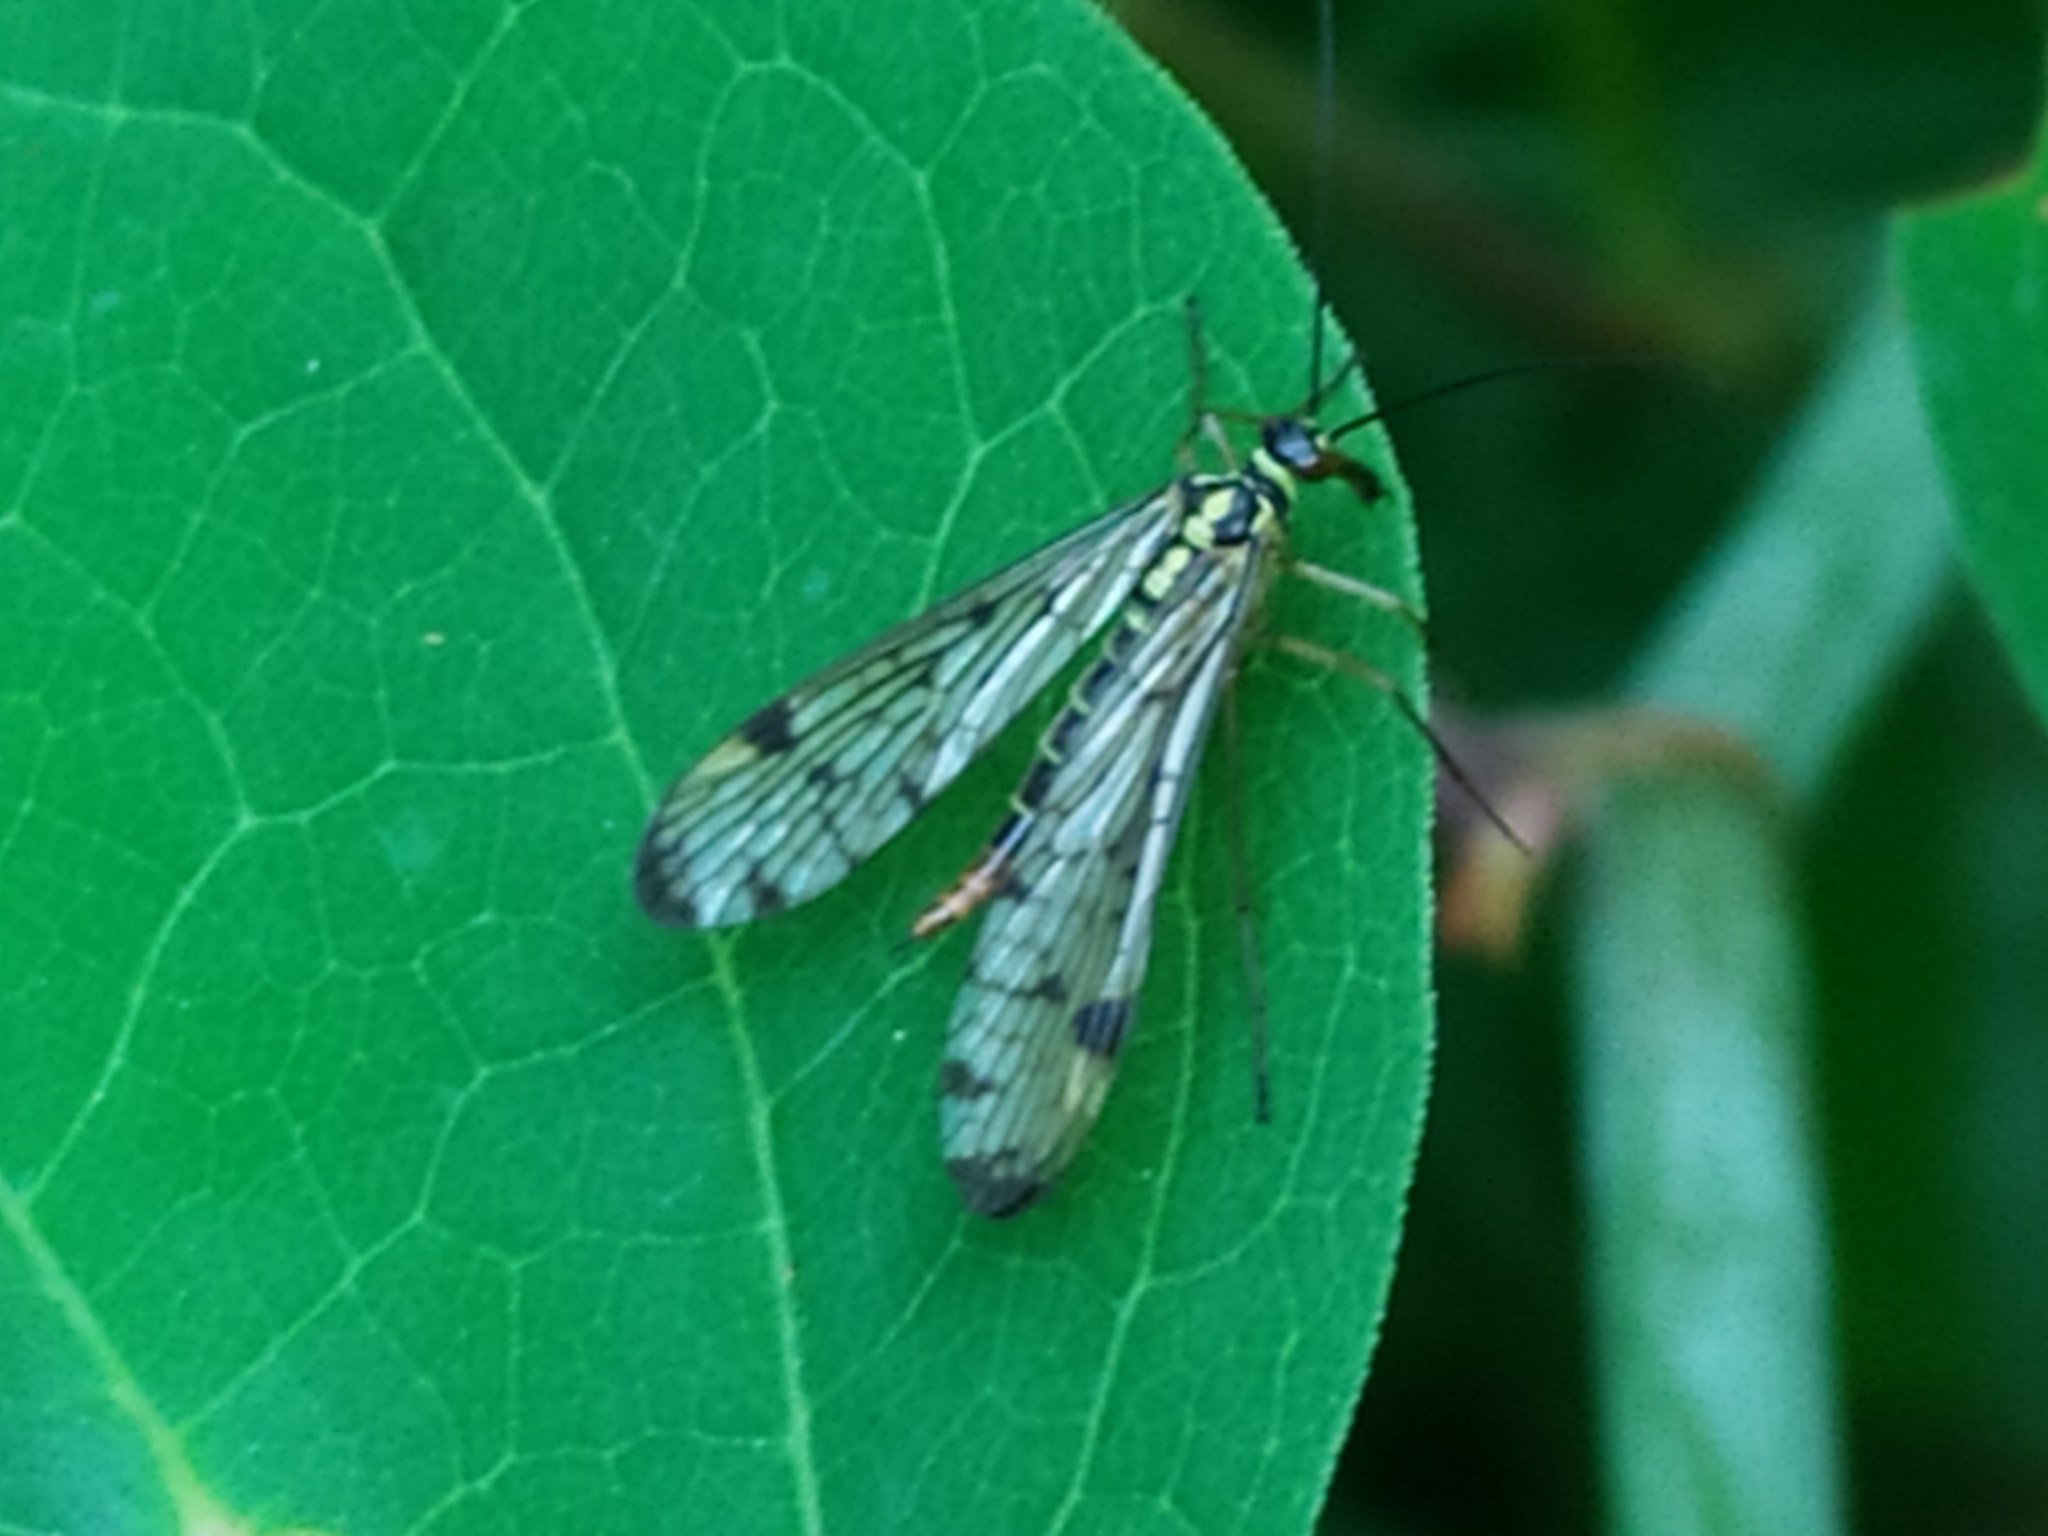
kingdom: Animalia
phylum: Arthropoda
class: Insecta
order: Mecoptera
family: Panorpidae
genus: Panorpa
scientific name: Panorpa germanica
